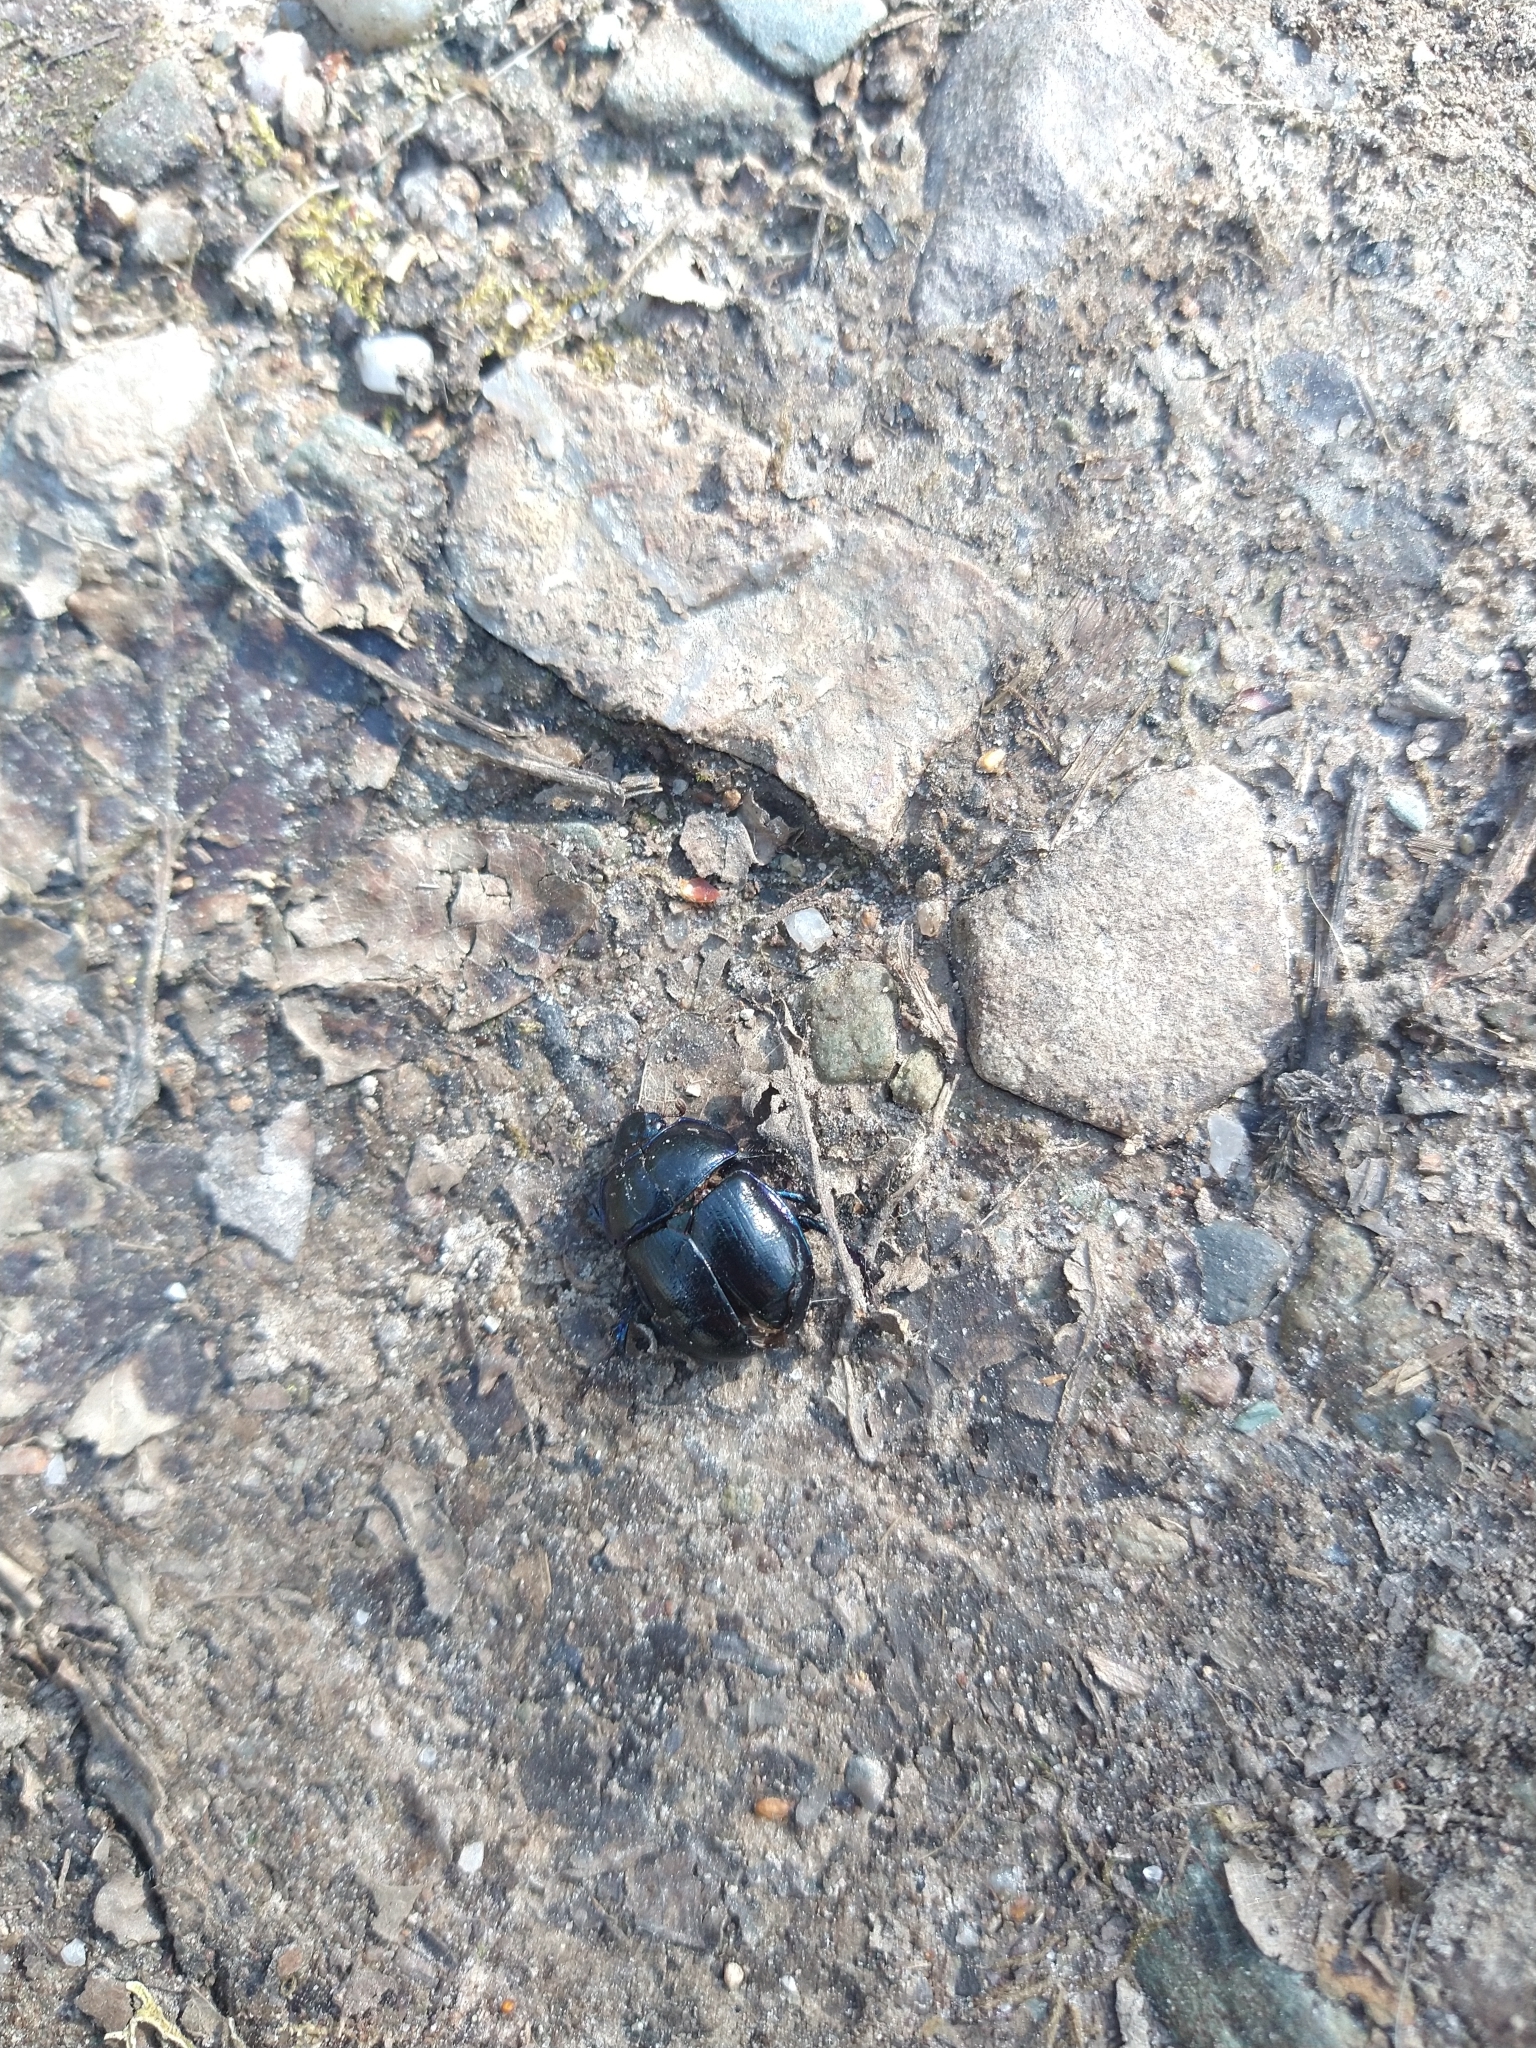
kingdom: Animalia
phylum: Arthropoda
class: Insecta
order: Coleoptera
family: Geotrupidae
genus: Anoplotrupes
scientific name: Anoplotrupes stercorosus
